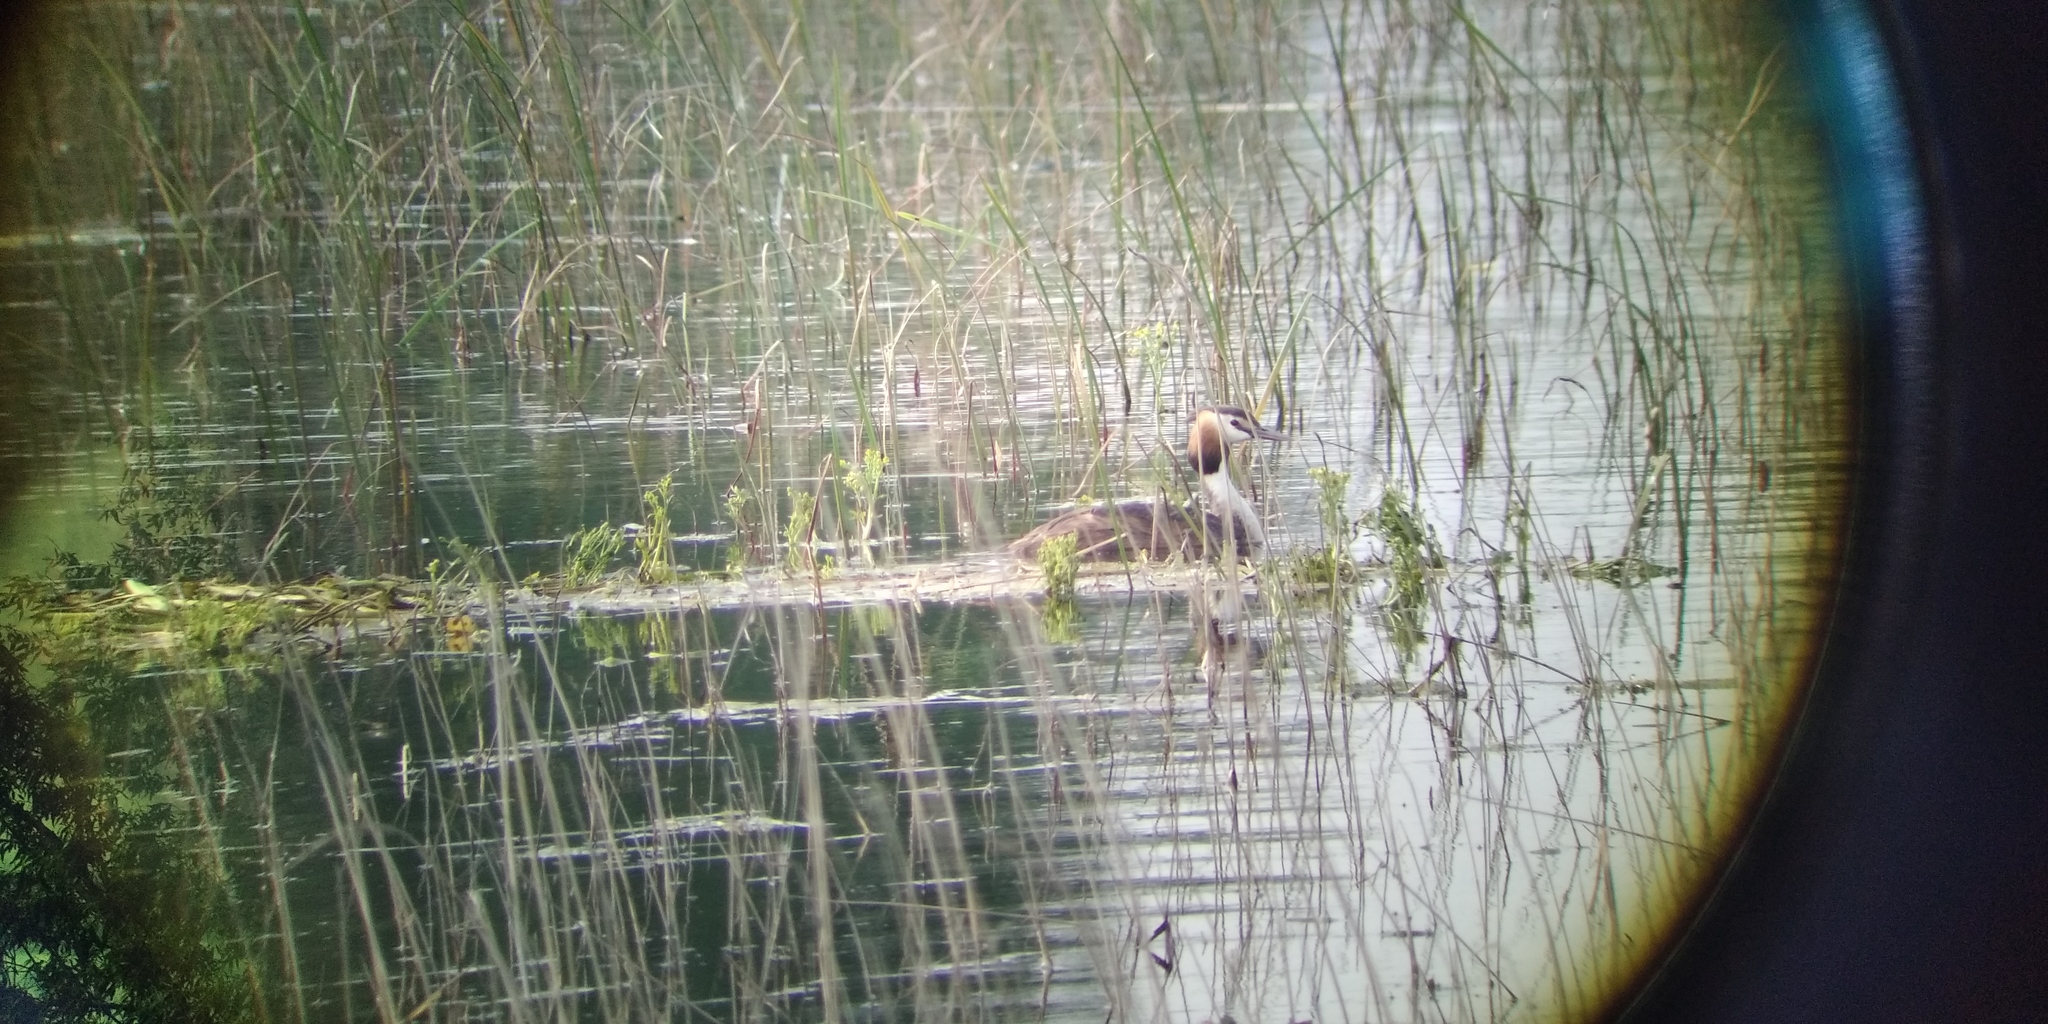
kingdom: Animalia
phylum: Chordata
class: Aves
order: Podicipediformes
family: Podicipedidae
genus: Podiceps
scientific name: Podiceps cristatus
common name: Great crested grebe
